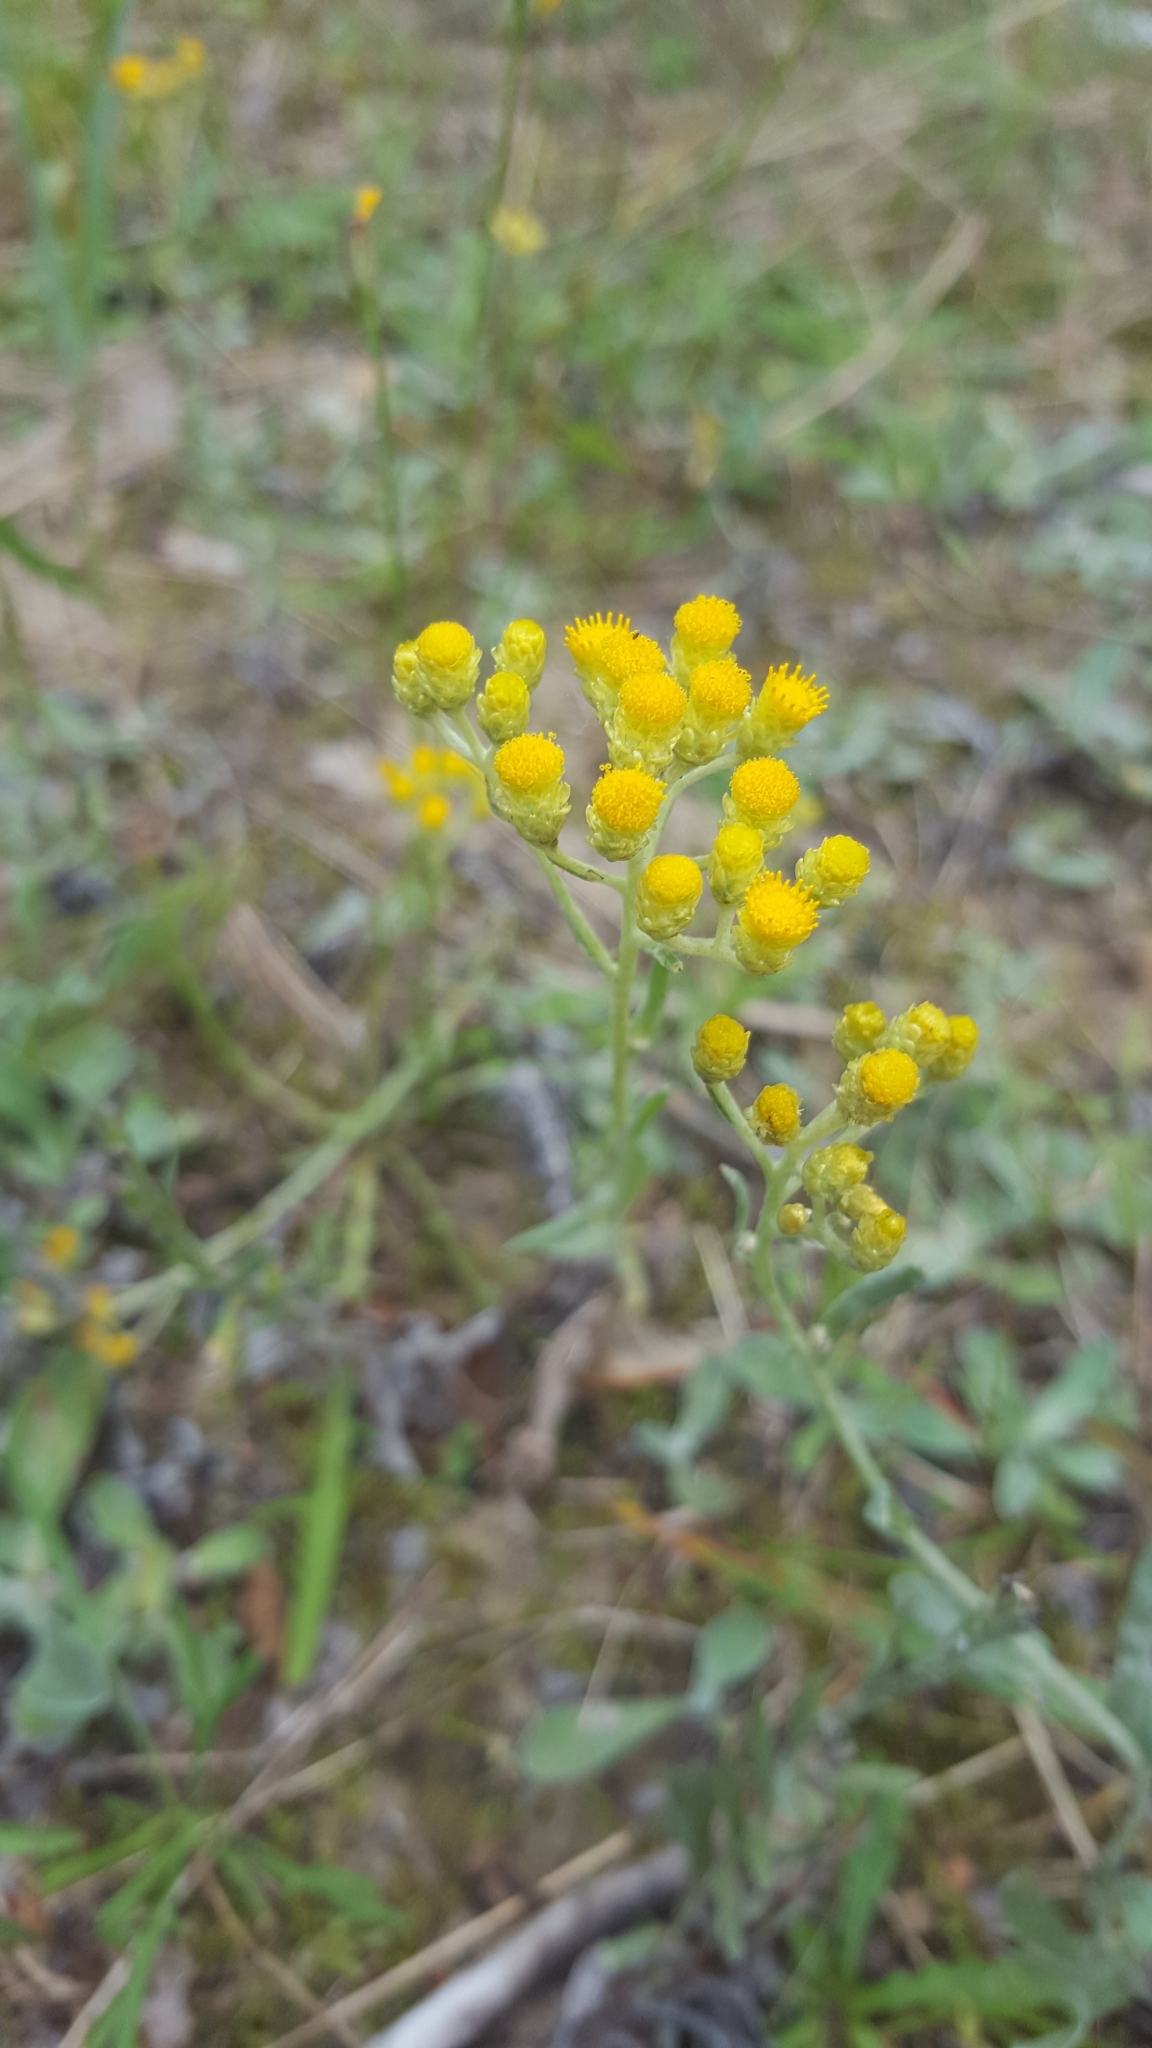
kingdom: Plantae
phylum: Tracheophyta
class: Magnoliopsida
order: Asterales
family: Asteraceae
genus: Helichrysum
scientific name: Helichrysum arenarium
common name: Strawflower
